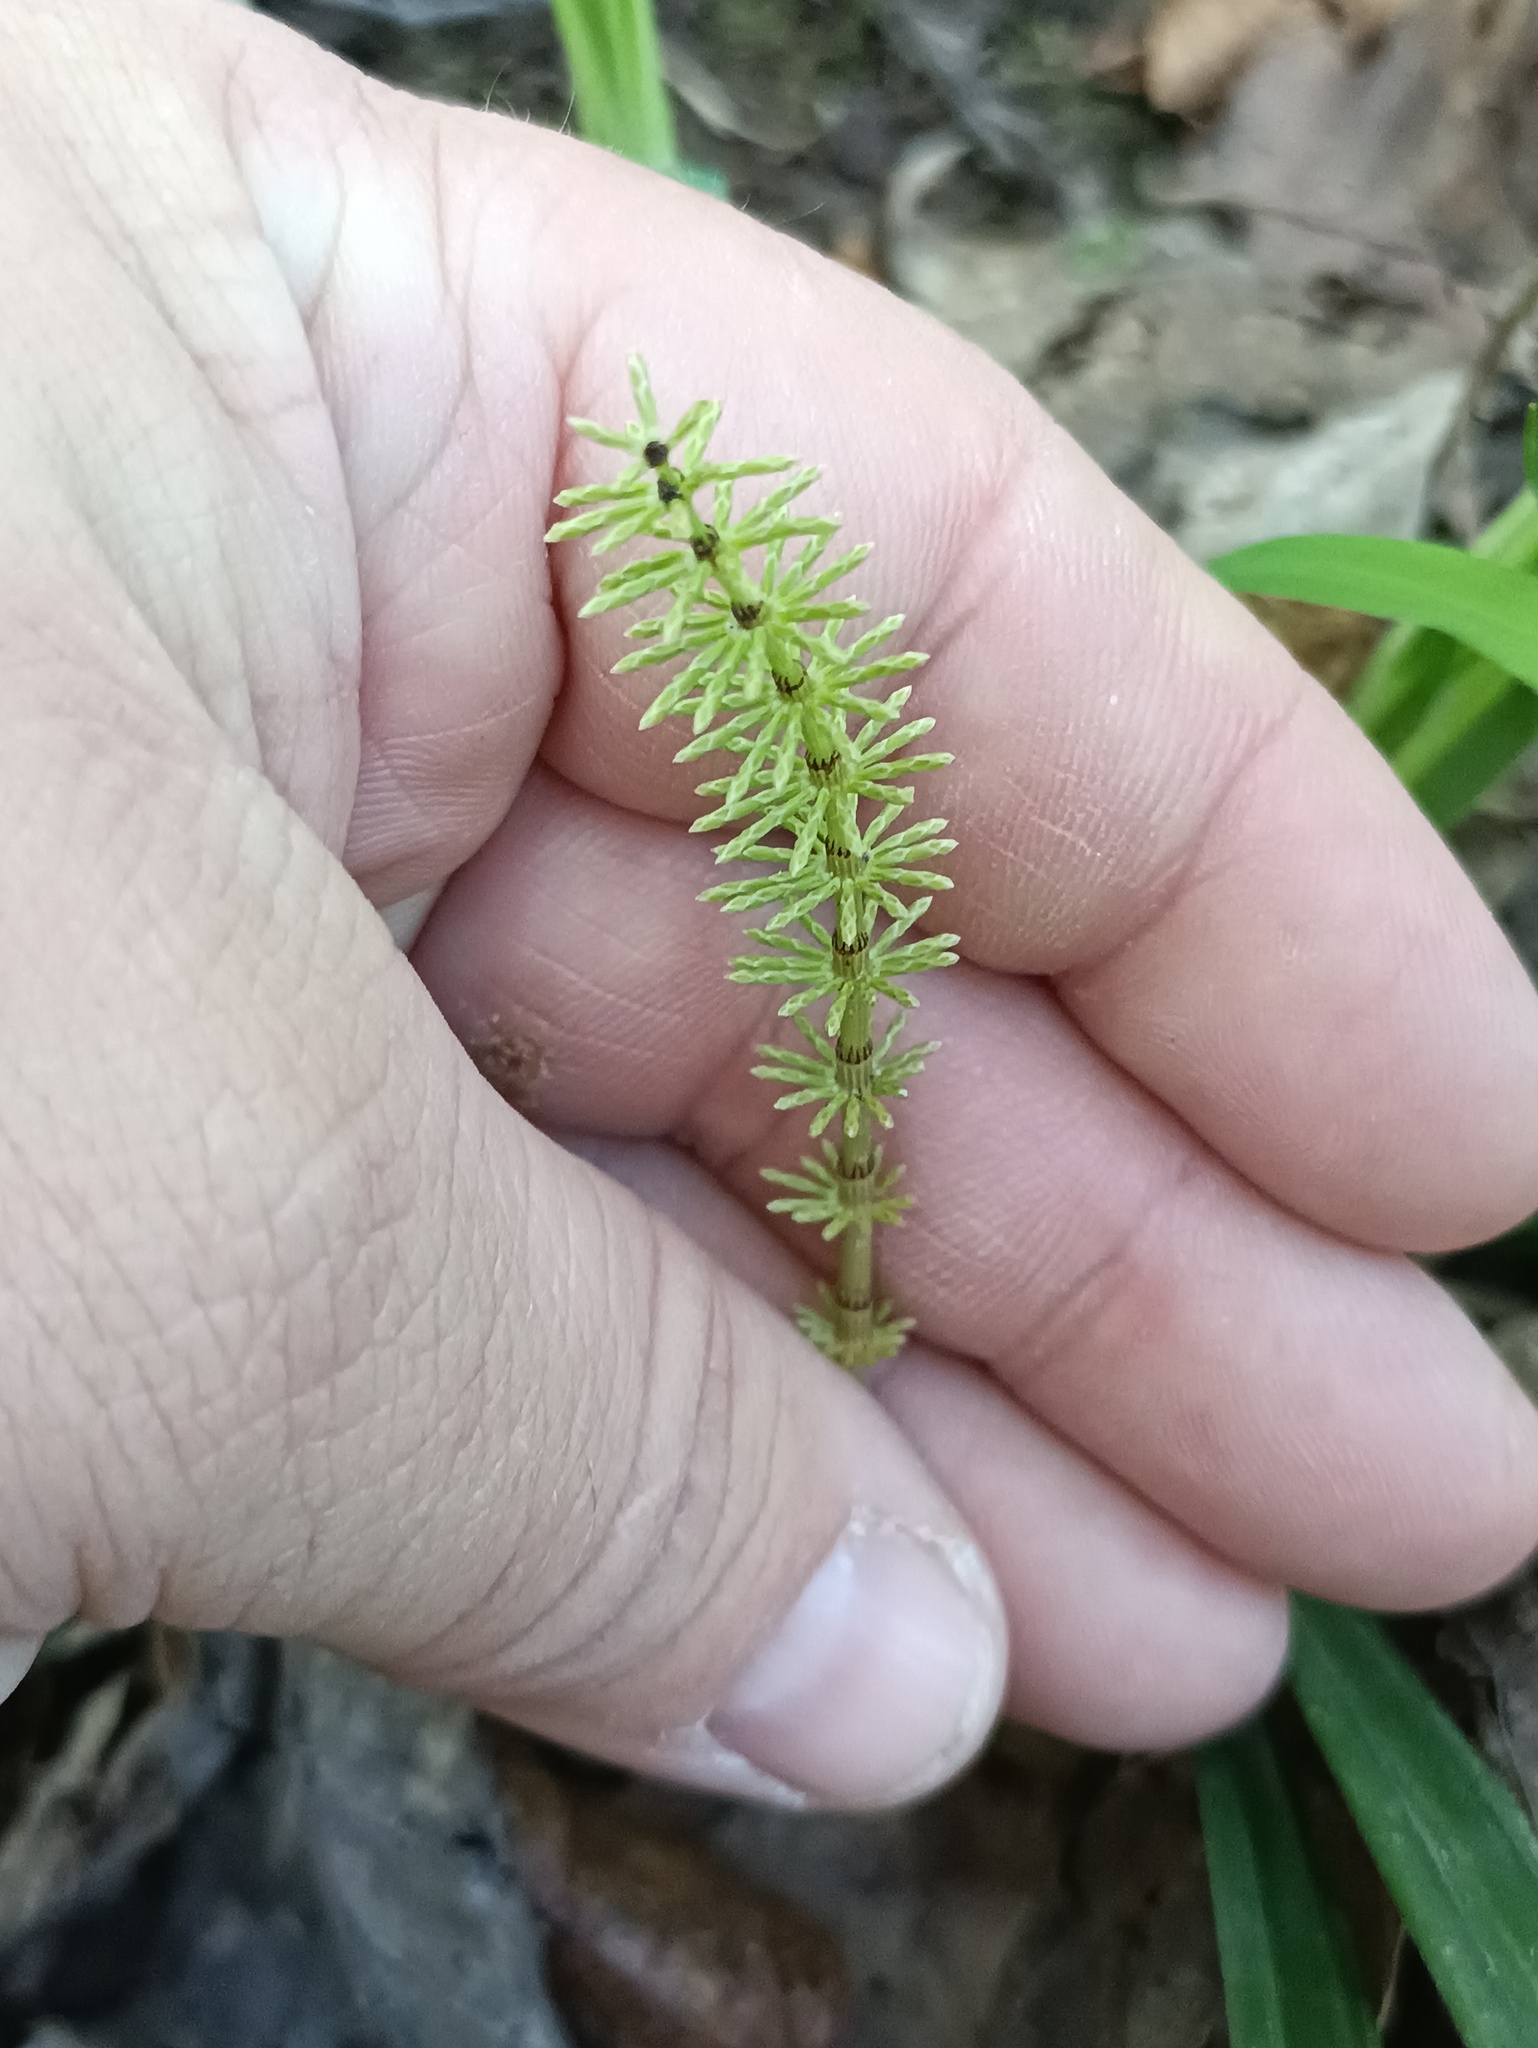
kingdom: Plantae
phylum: Tracheophyta
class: Polypodiopsida
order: Equisetales
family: Equisetaceae
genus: Equisetum
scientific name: Equisetum pratense
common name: Meadow horsetail
